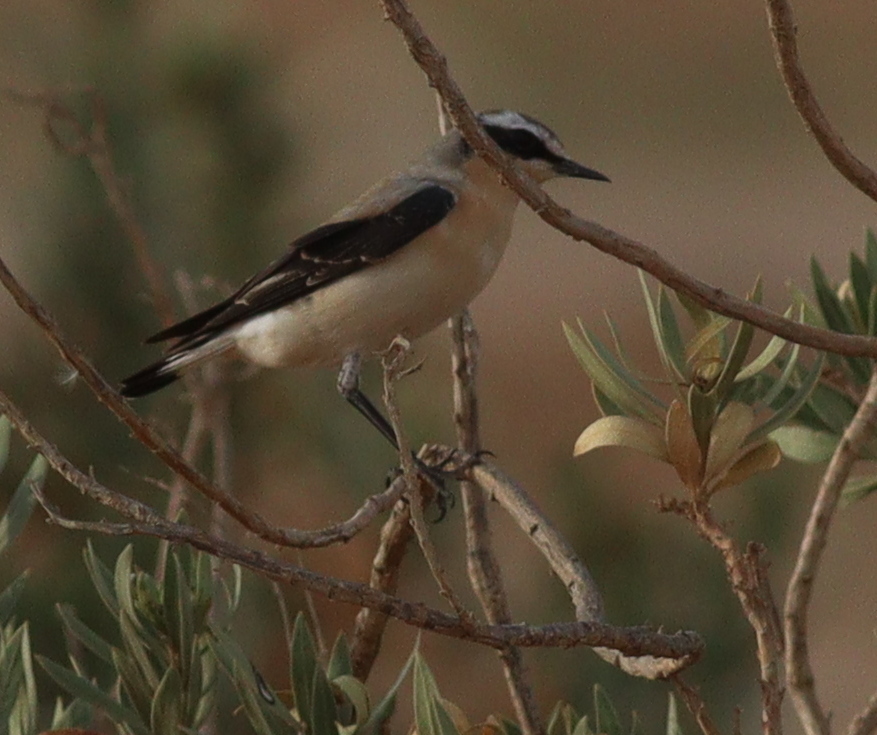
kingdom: Animalia
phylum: Chordata
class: Aves
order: Passeriformes
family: Muscicapidae
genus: Oenanthe
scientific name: Oenanthe oenanthe
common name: Northern wheatear
